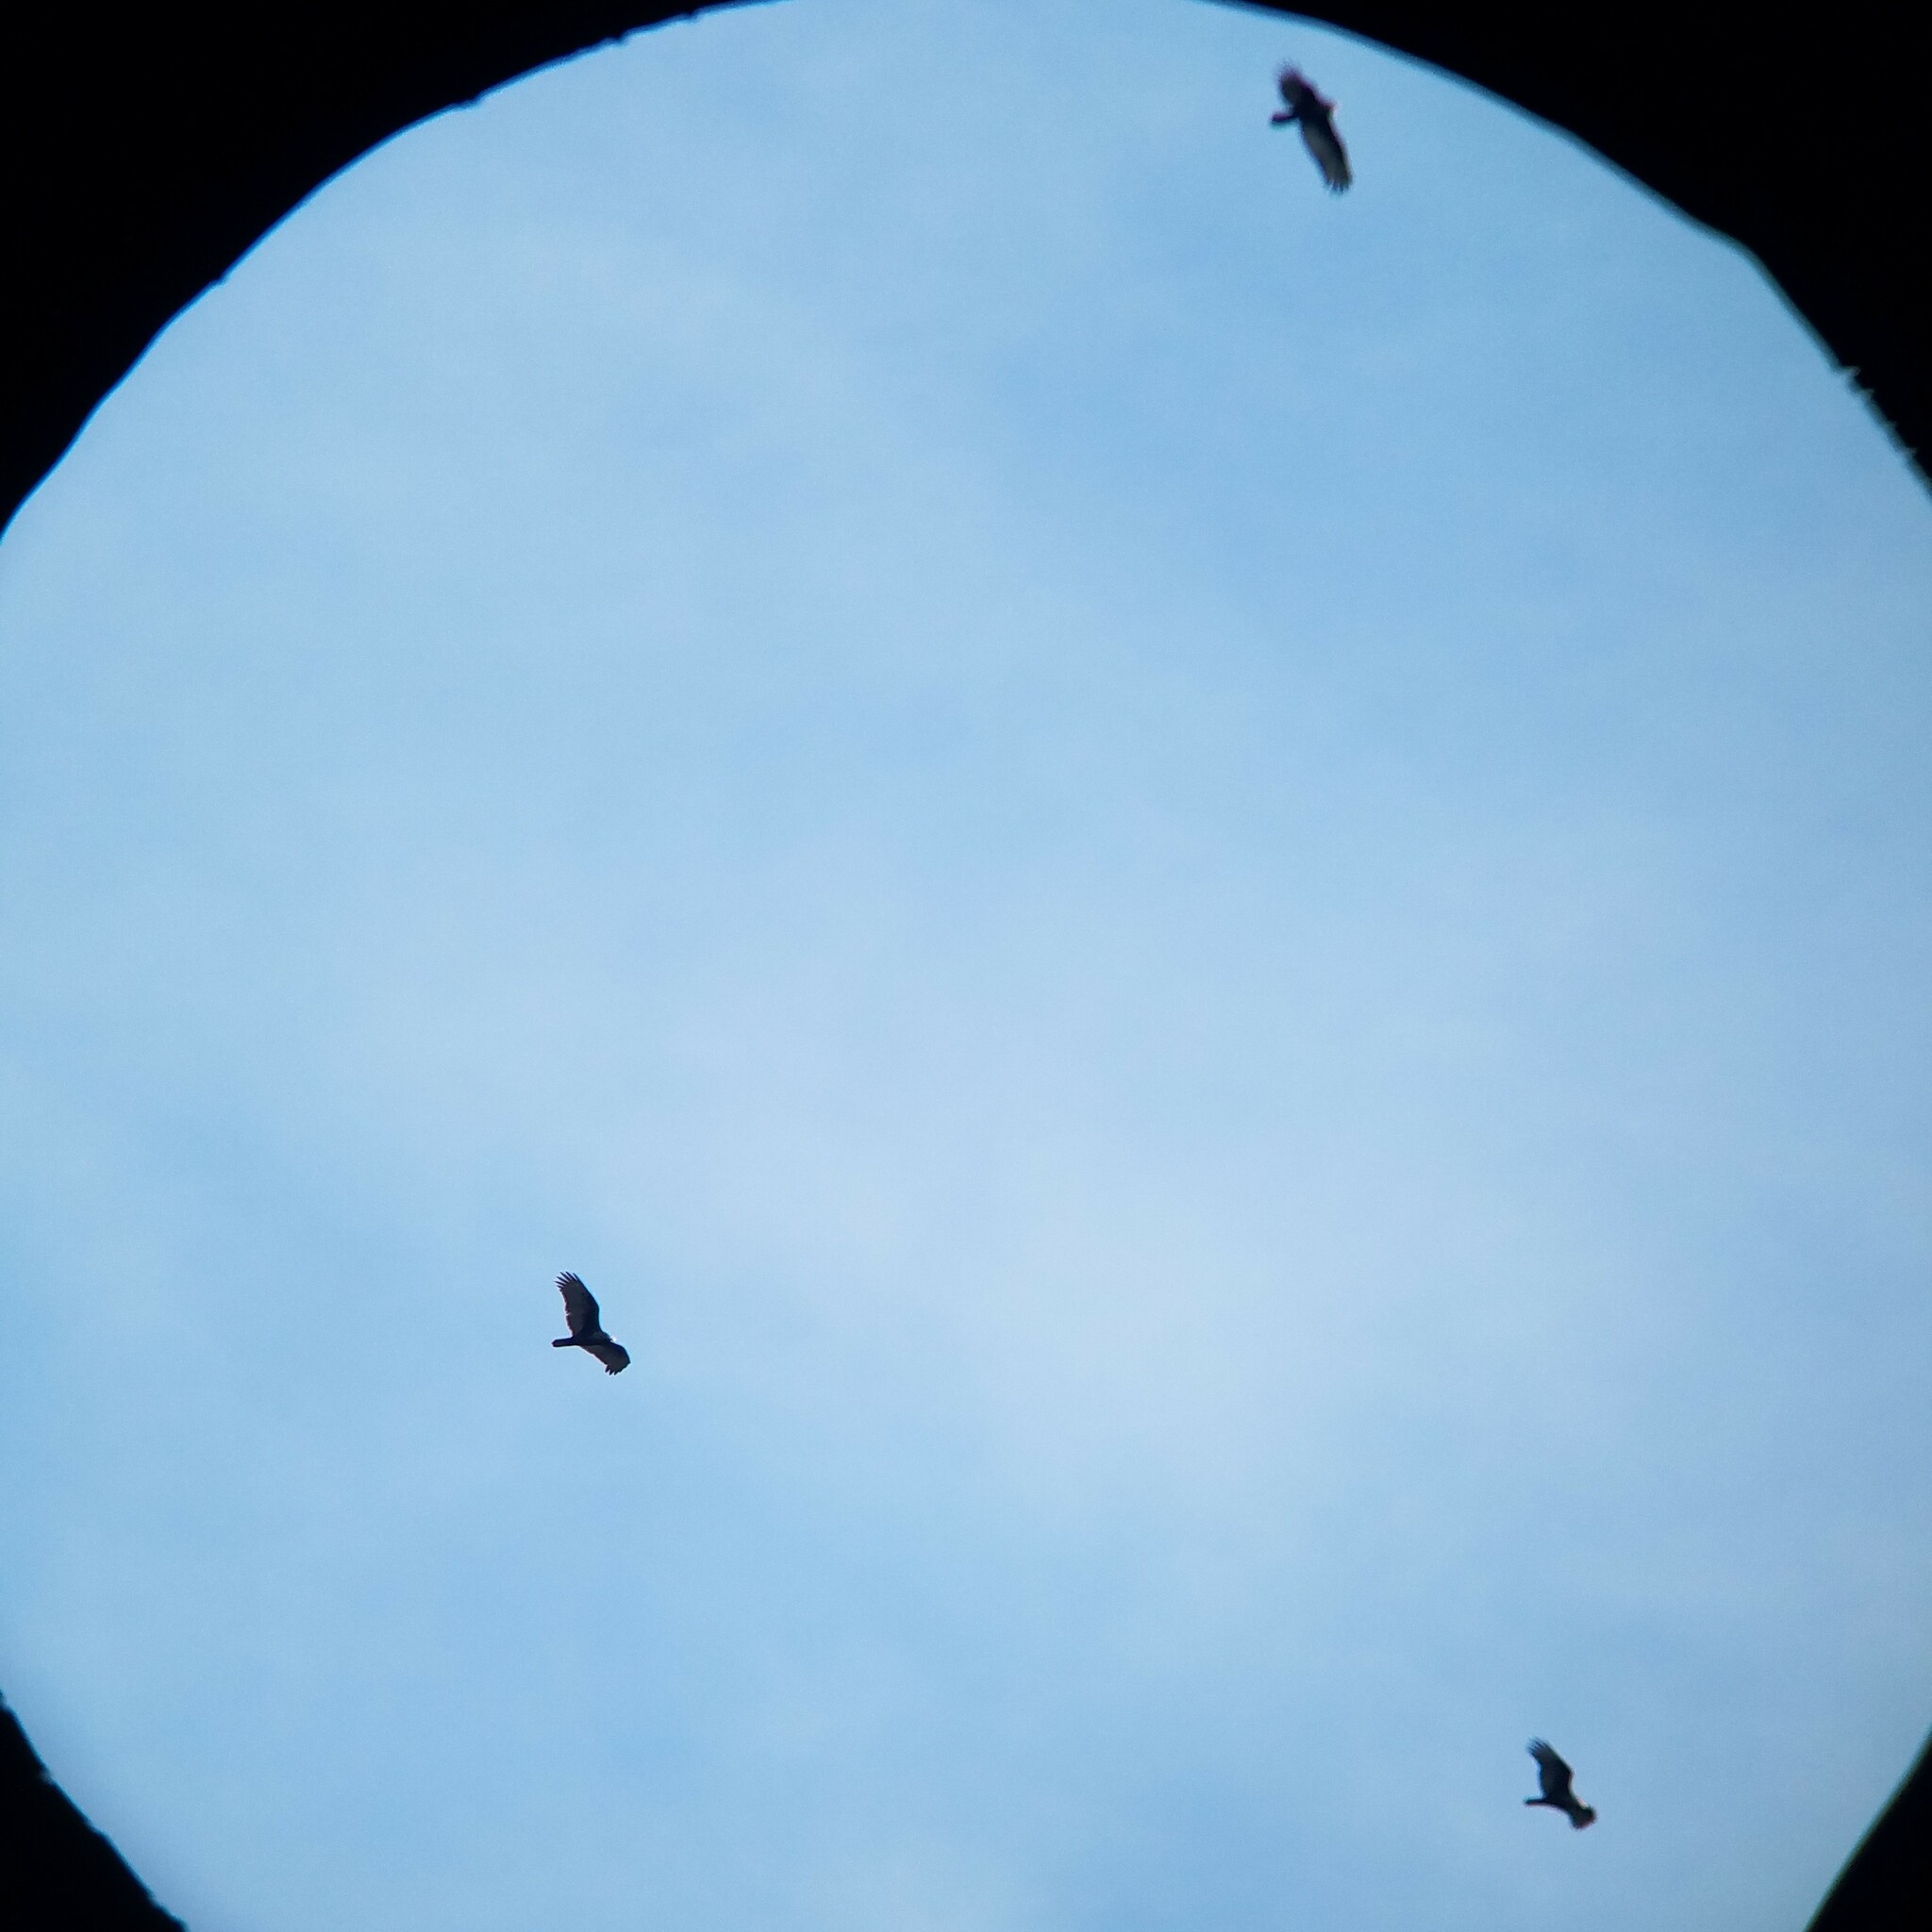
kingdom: Animalia
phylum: Chordata
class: Aves
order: Accipitriformes
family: Cathartidae
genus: Cathartes
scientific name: Cathartes aura
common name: Turkey vulture
